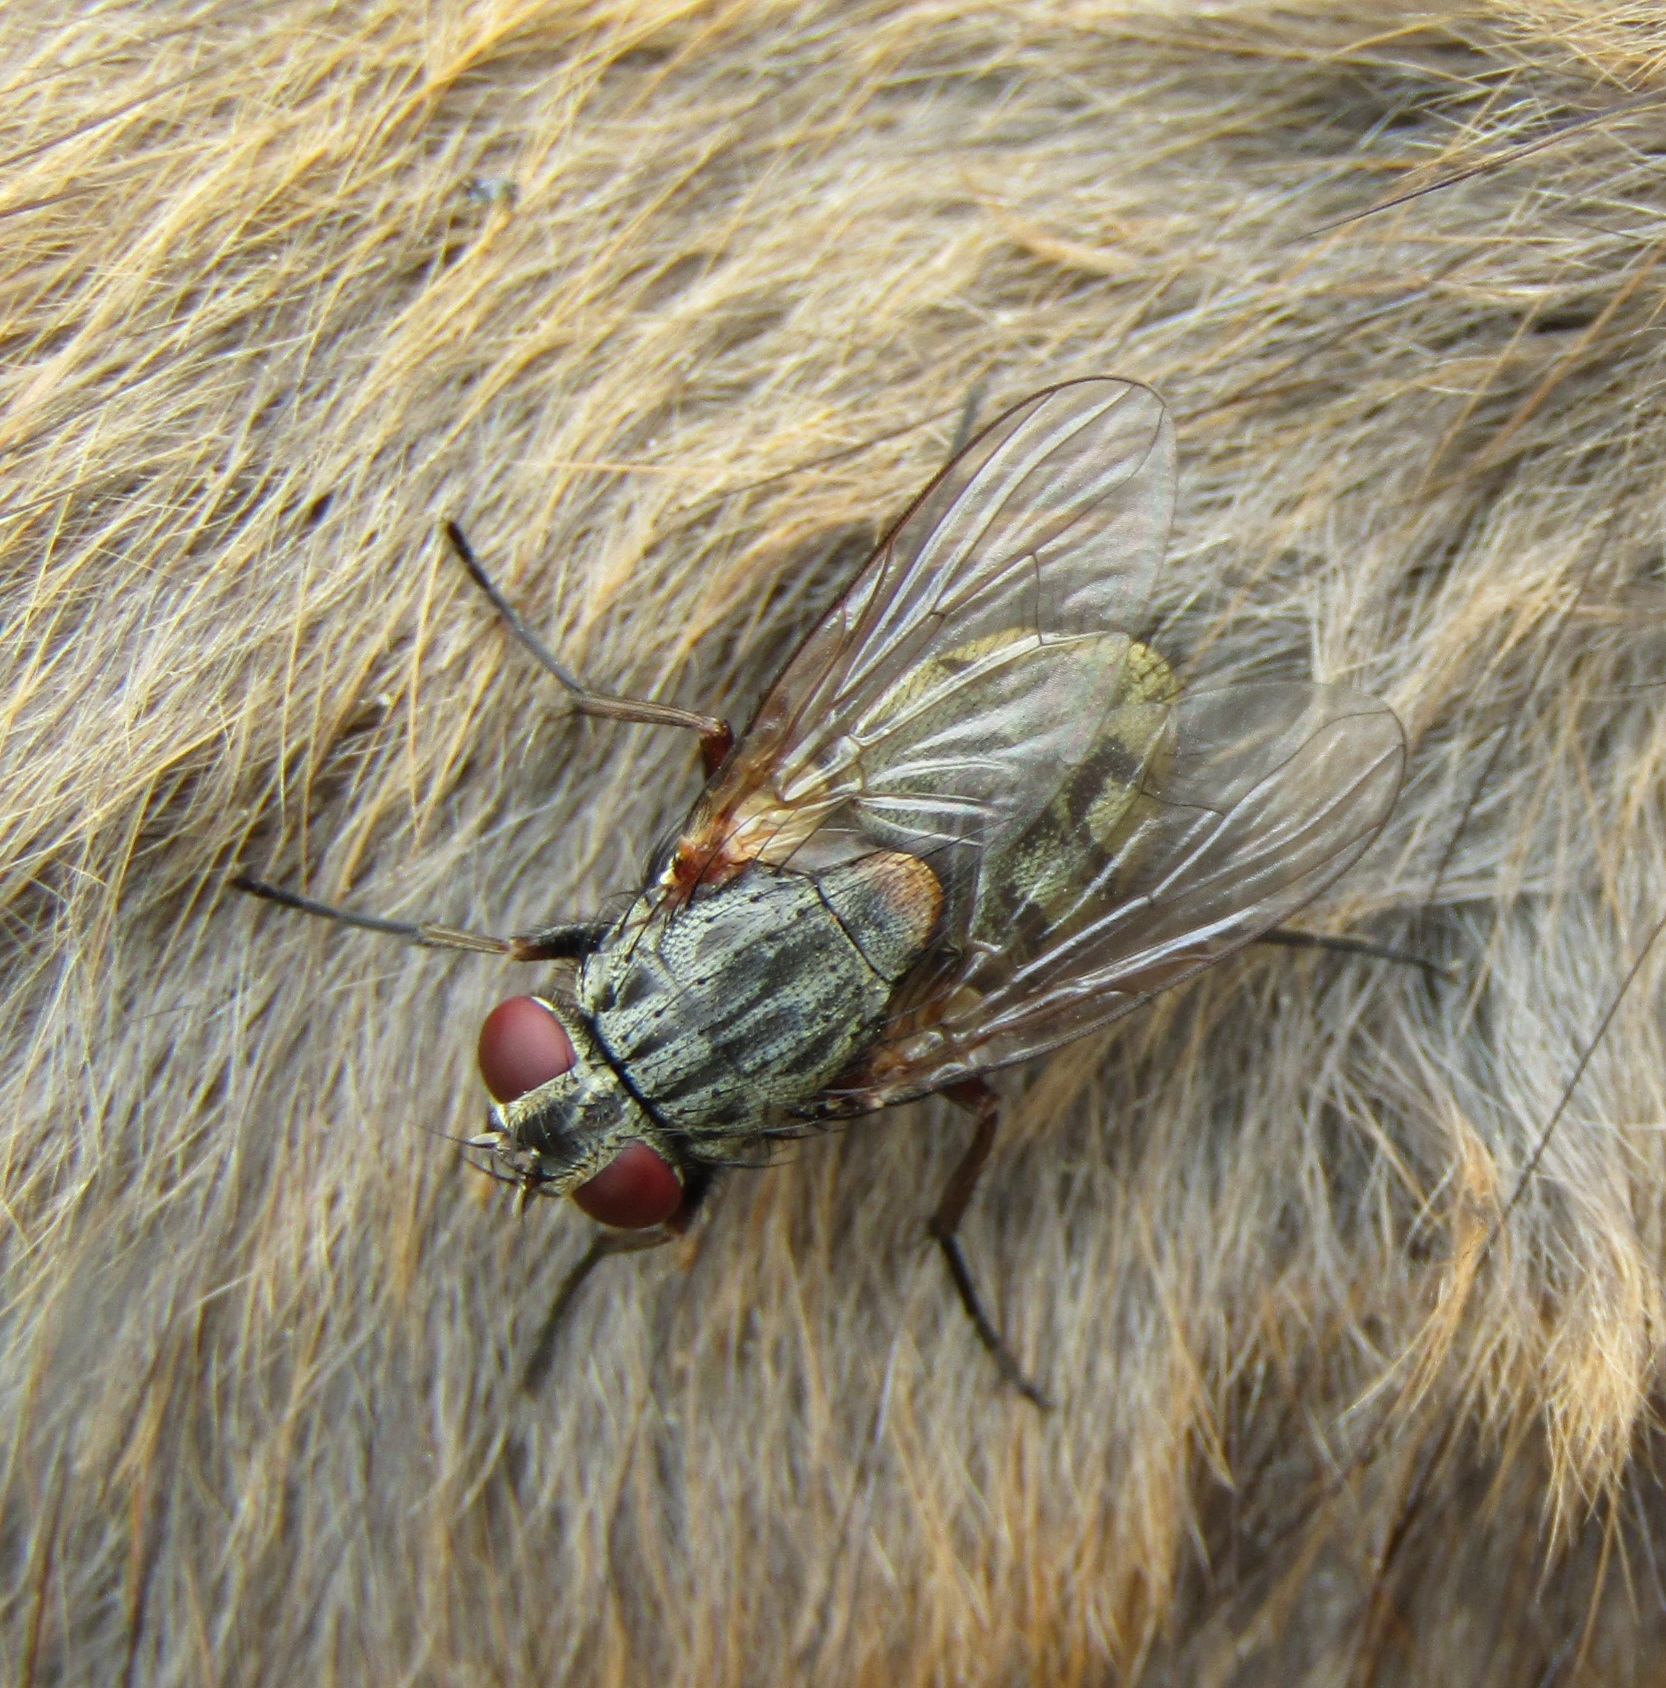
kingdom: Animalia
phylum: Arthropoda
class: Insecta
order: Diptera
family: Muscidae
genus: Muscina
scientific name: Muscina stabulans
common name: False stable fly
